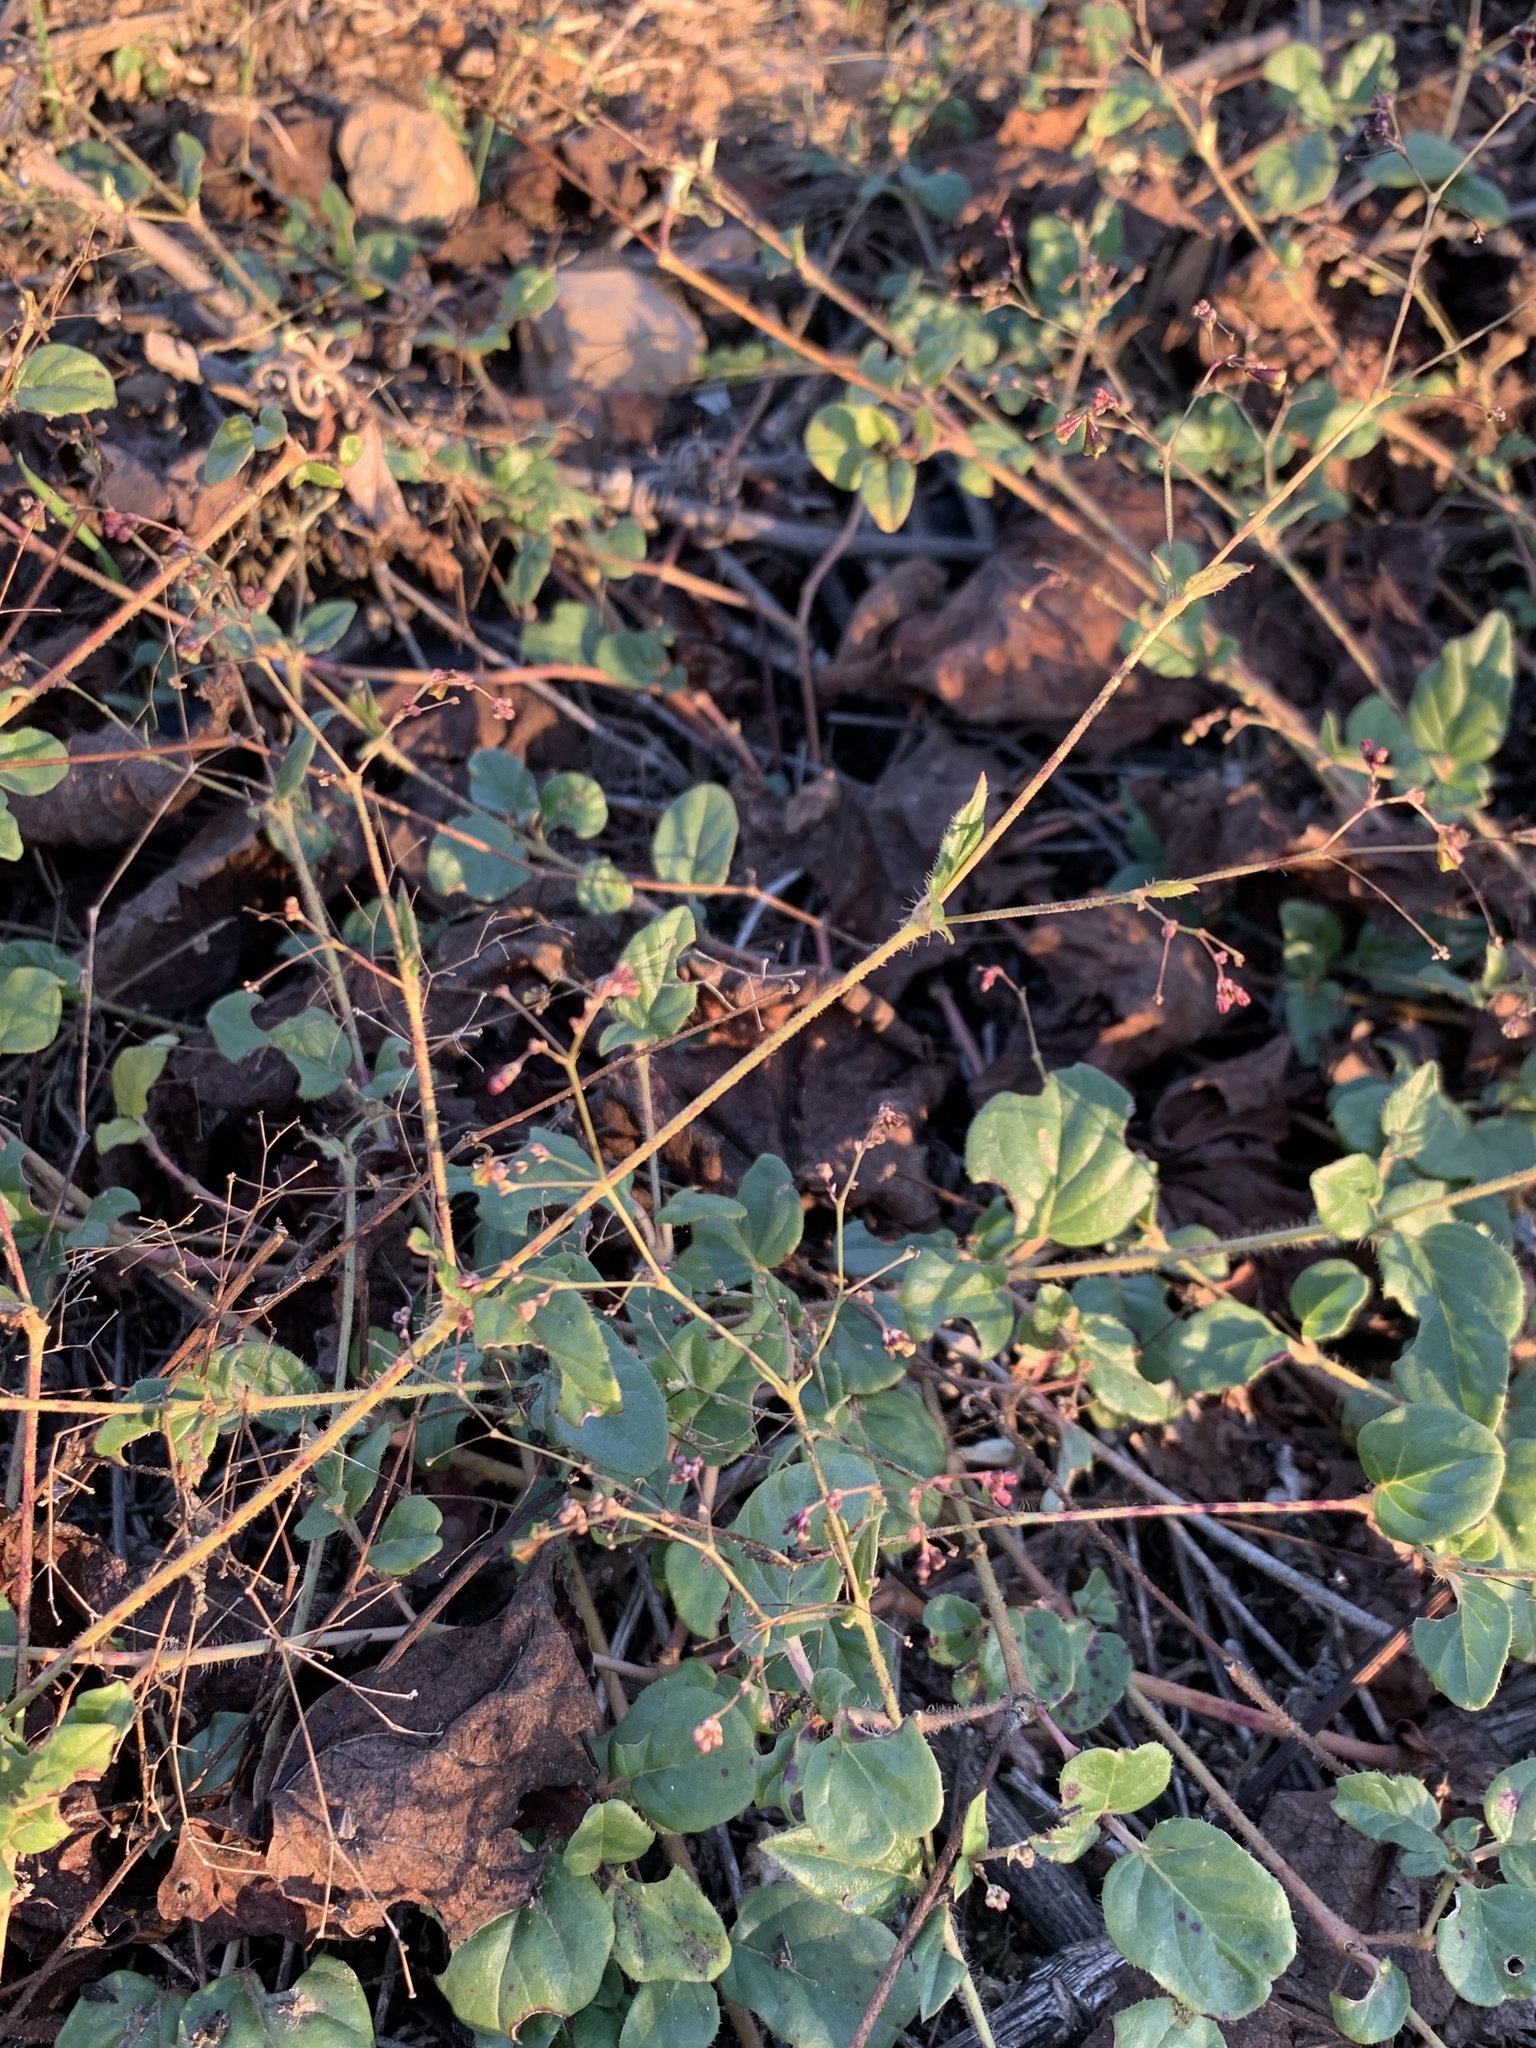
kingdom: Plantae
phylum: Tracheophyta
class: Magnoliopsida
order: Caryophyllales
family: Nyctaginaceae
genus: Boerhavia
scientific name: Boerhavia erecta
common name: Erect spiderling
